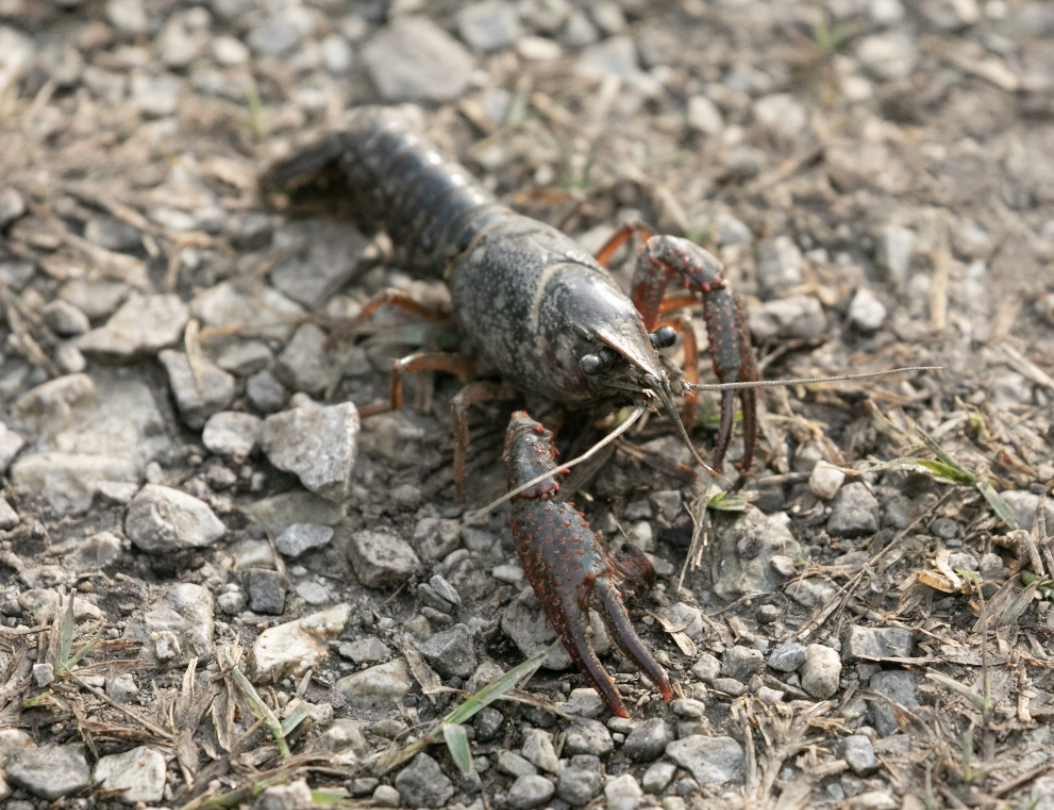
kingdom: Animalia
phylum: Arthropoda
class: Malacostraca
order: Decapoda
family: Cambaridae
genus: Procambarus
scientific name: Procambarus clarkii
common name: Red swamp crayfish
